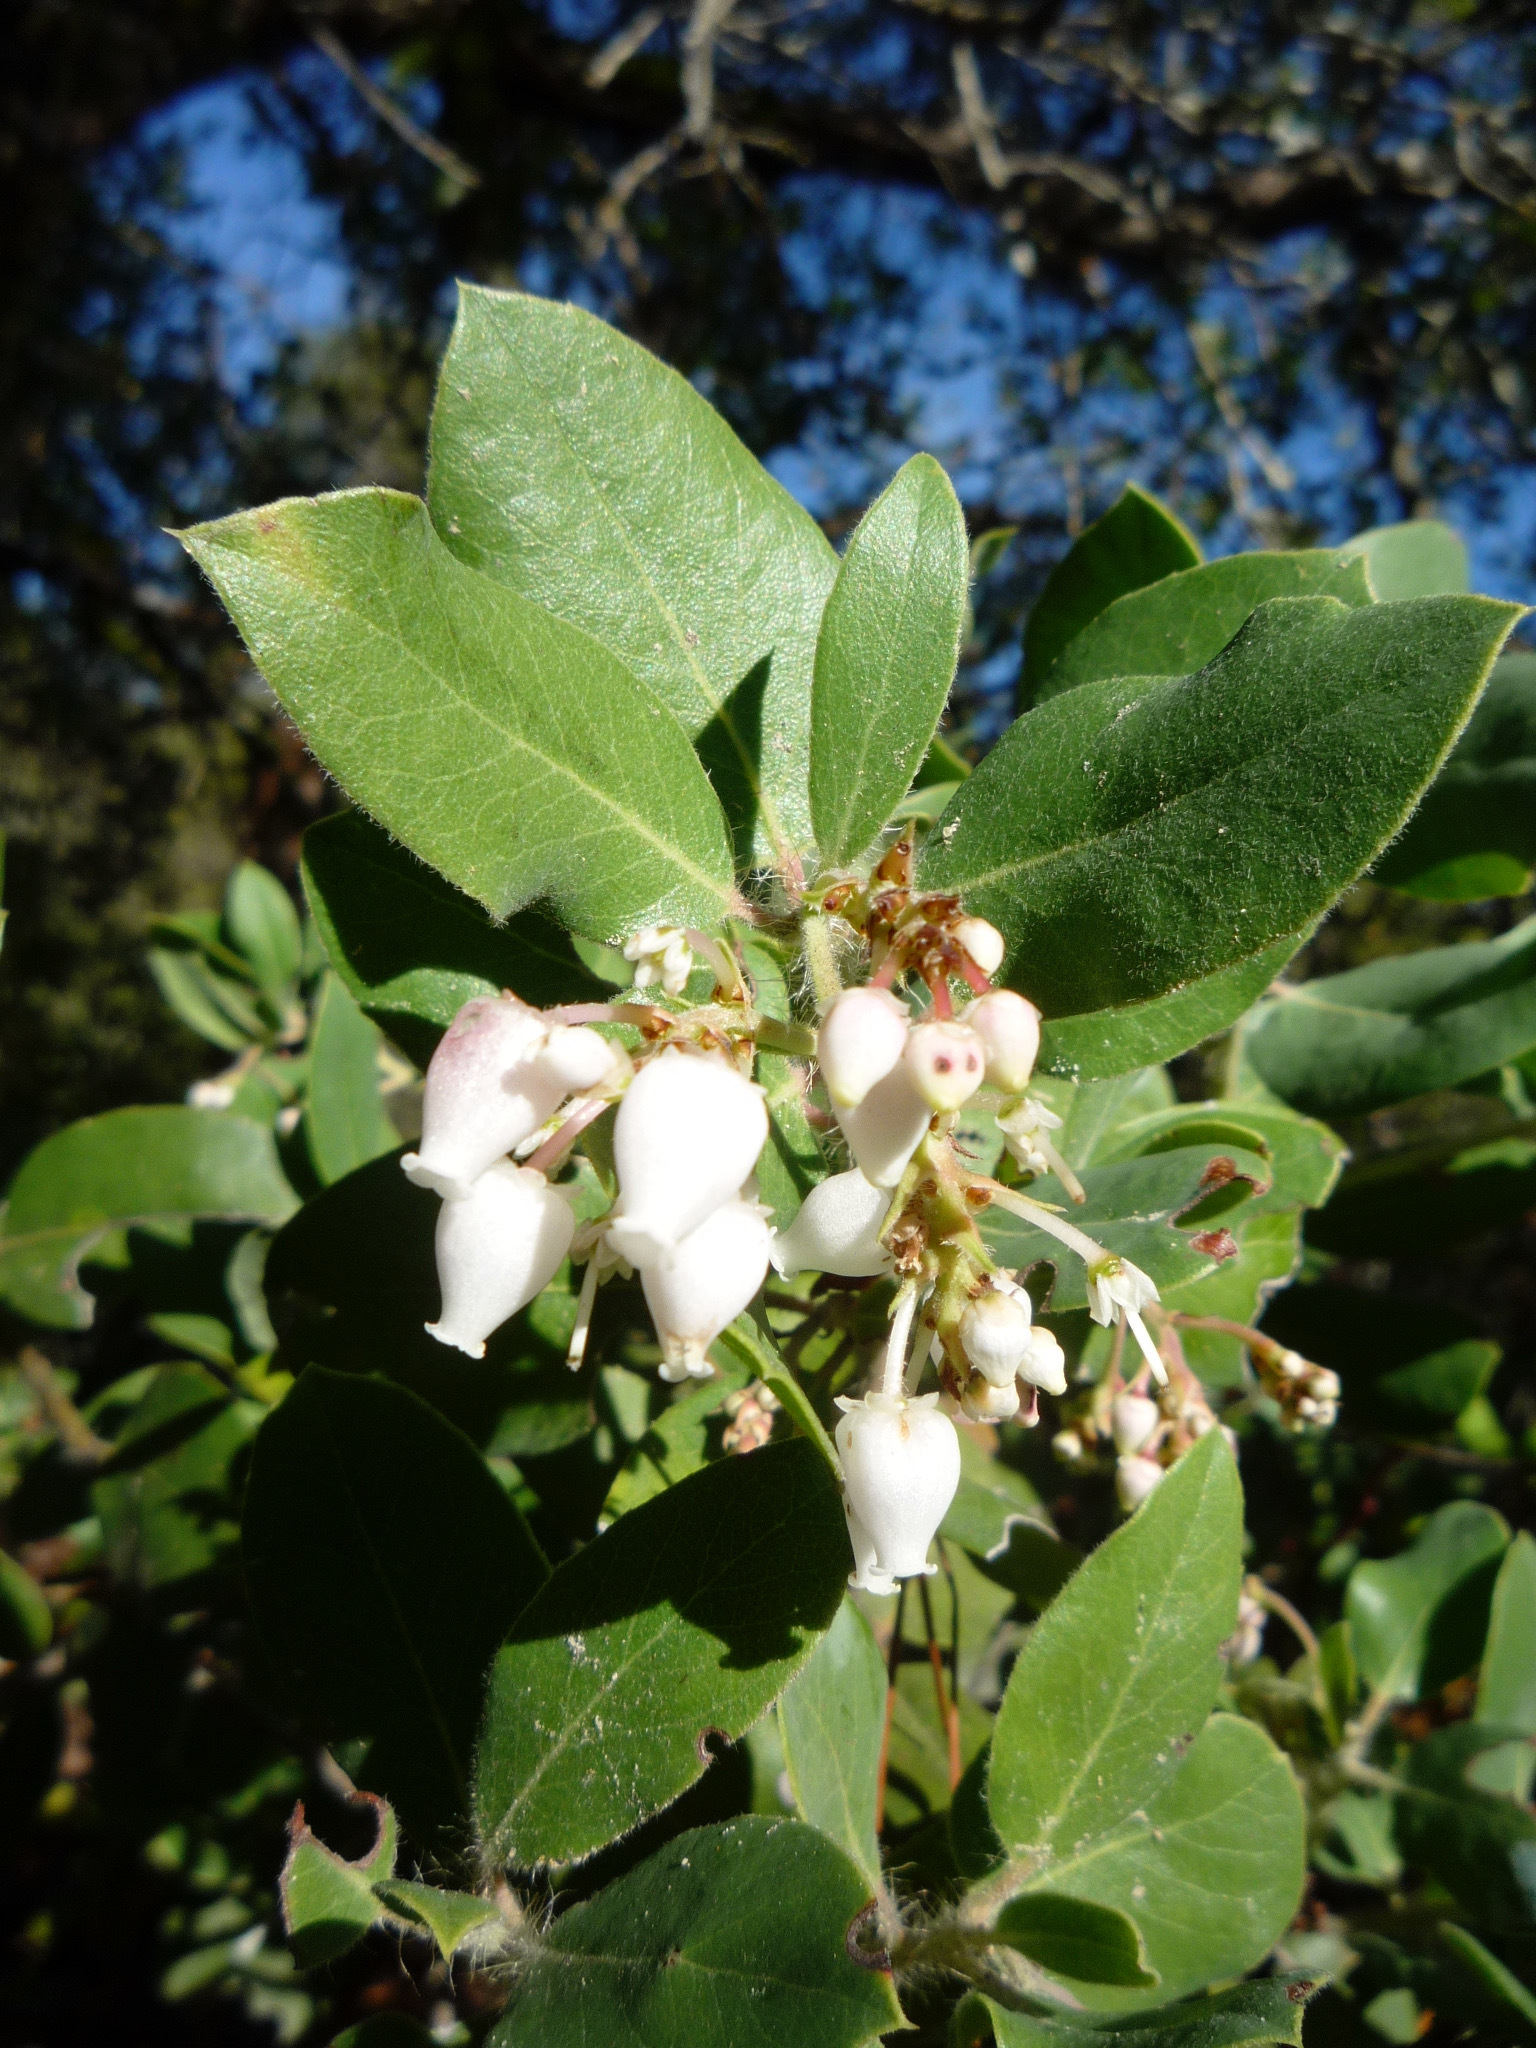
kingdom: Plantae
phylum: Tracheophyta
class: Magnoliopsida
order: Ericales
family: Ericaceae
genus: Arctostaphylos
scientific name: Arctostaphylos crustacea
